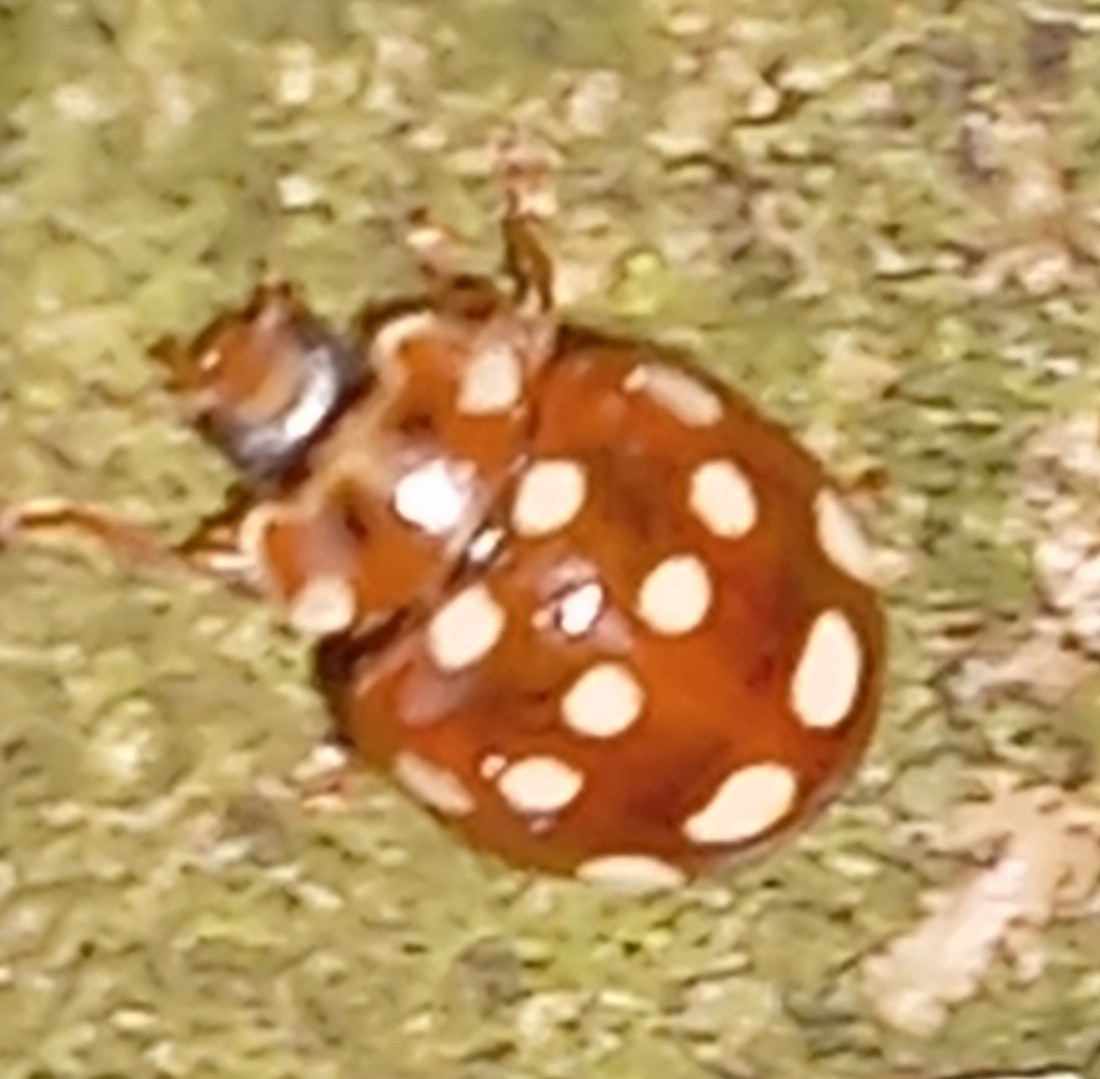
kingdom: Animalia
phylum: Arthropoda
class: Insecta
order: Coleoptera
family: Coccinellidae
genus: Calvia
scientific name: Calvia quatuordecimguttata
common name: Cream-spot ladybird
